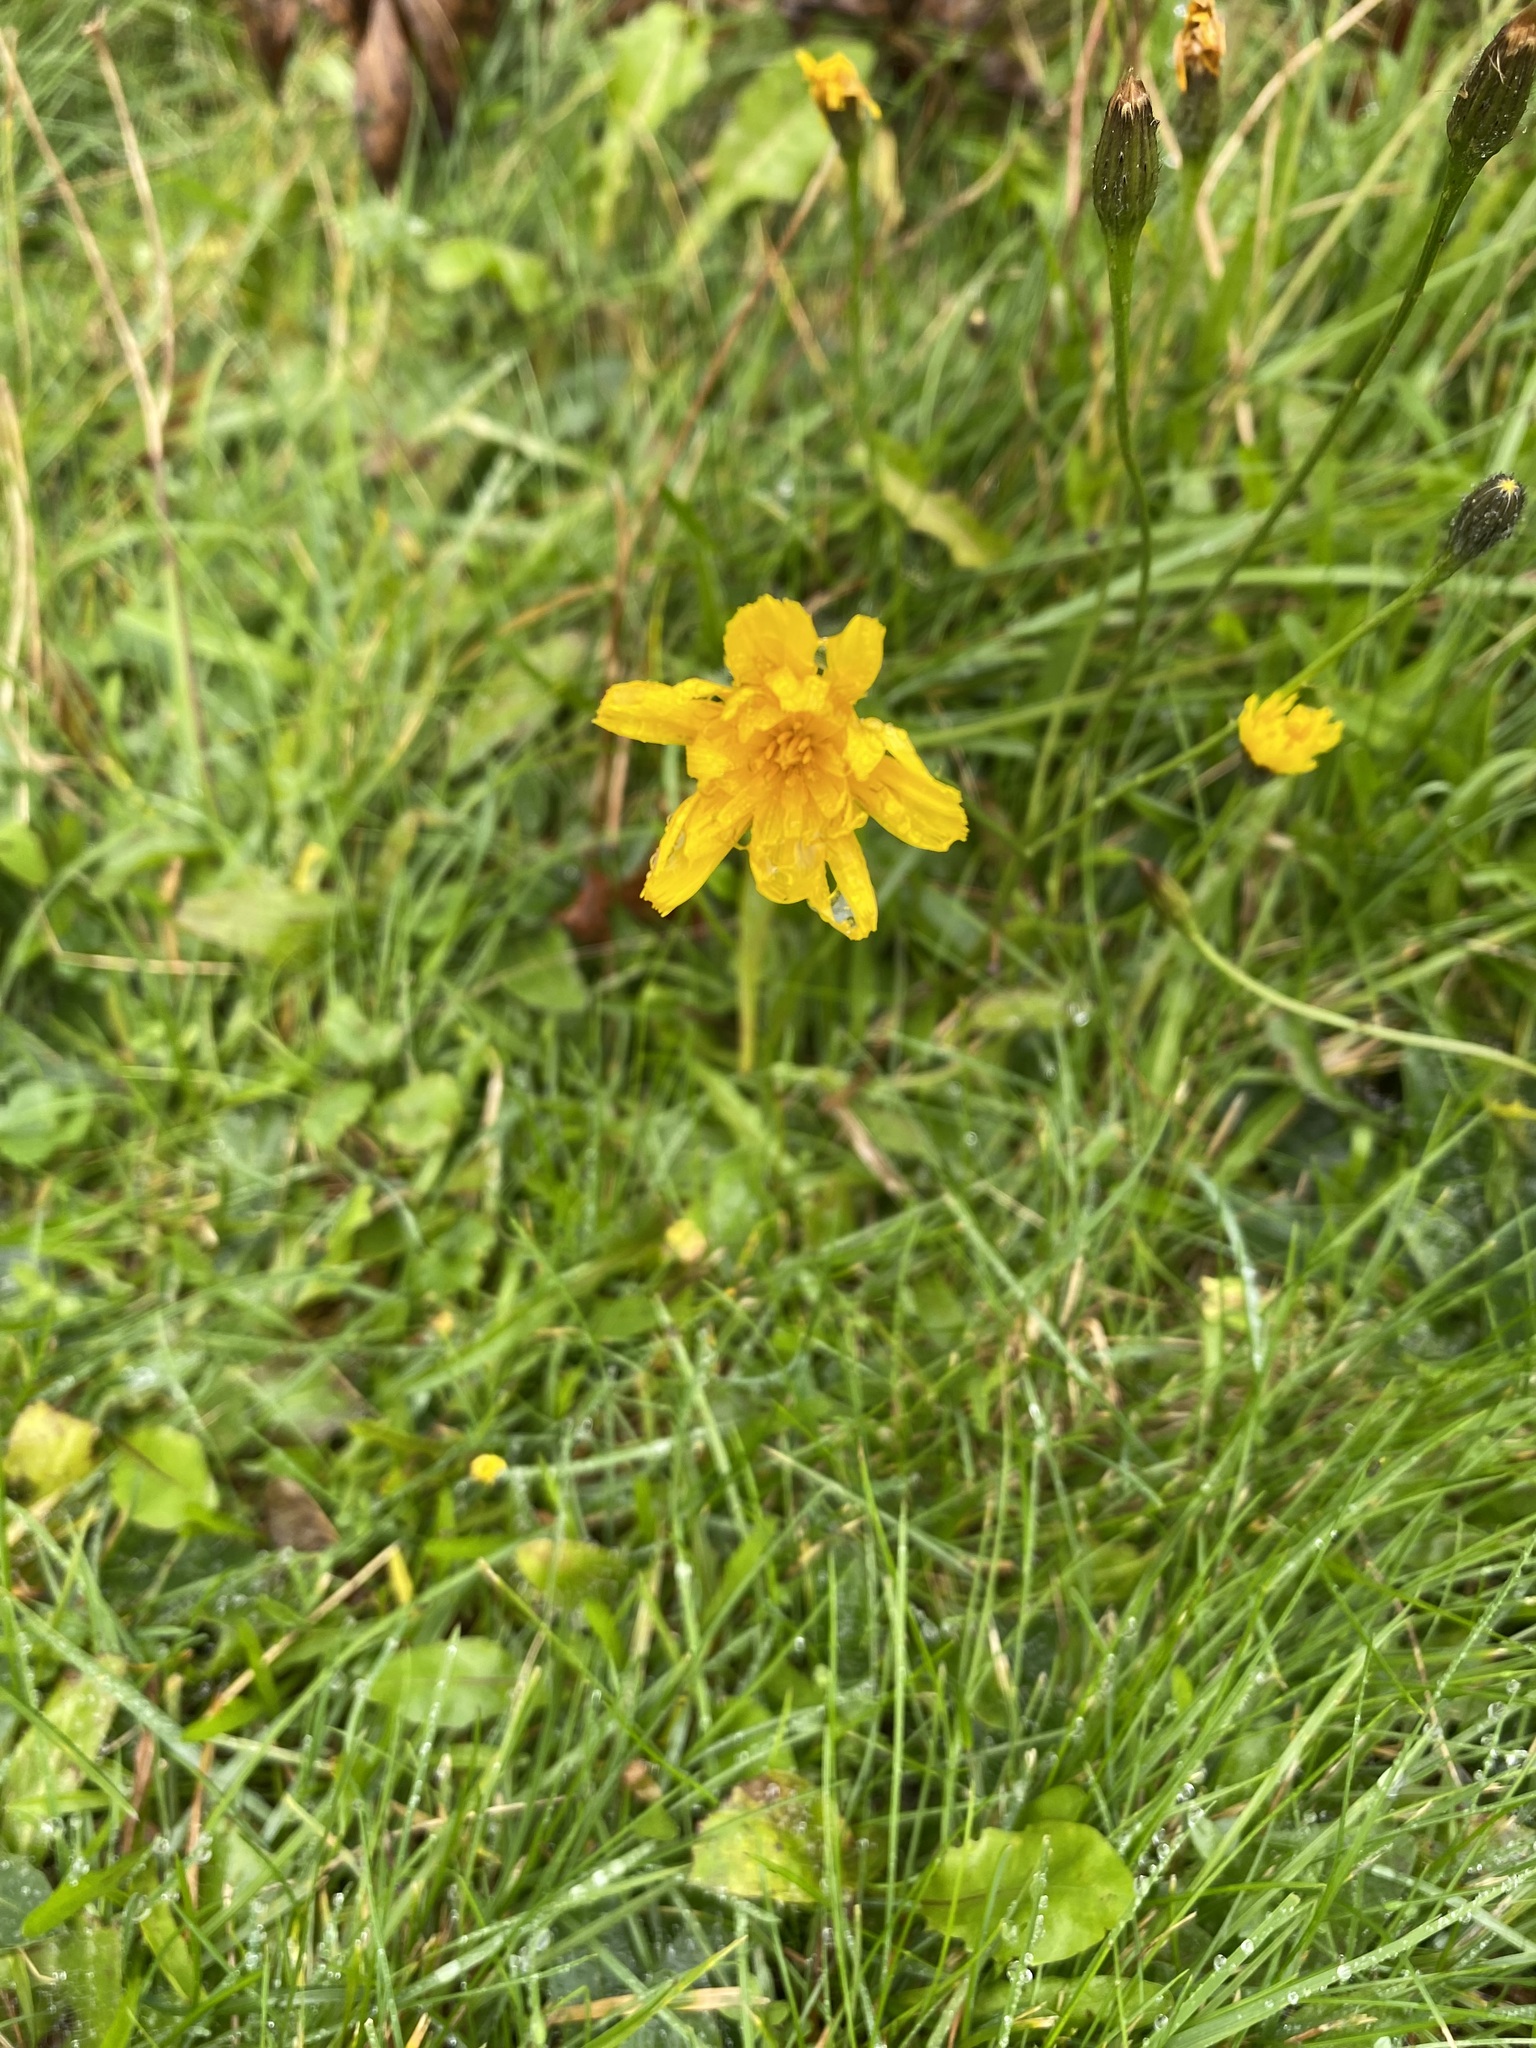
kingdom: Plantae
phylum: Tracheophyta
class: Magnoliopsida
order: Asterales
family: Asteraceae
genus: Scorzoneroides
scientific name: Scorzoneroides autumnalis
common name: Autumn hawkbit
